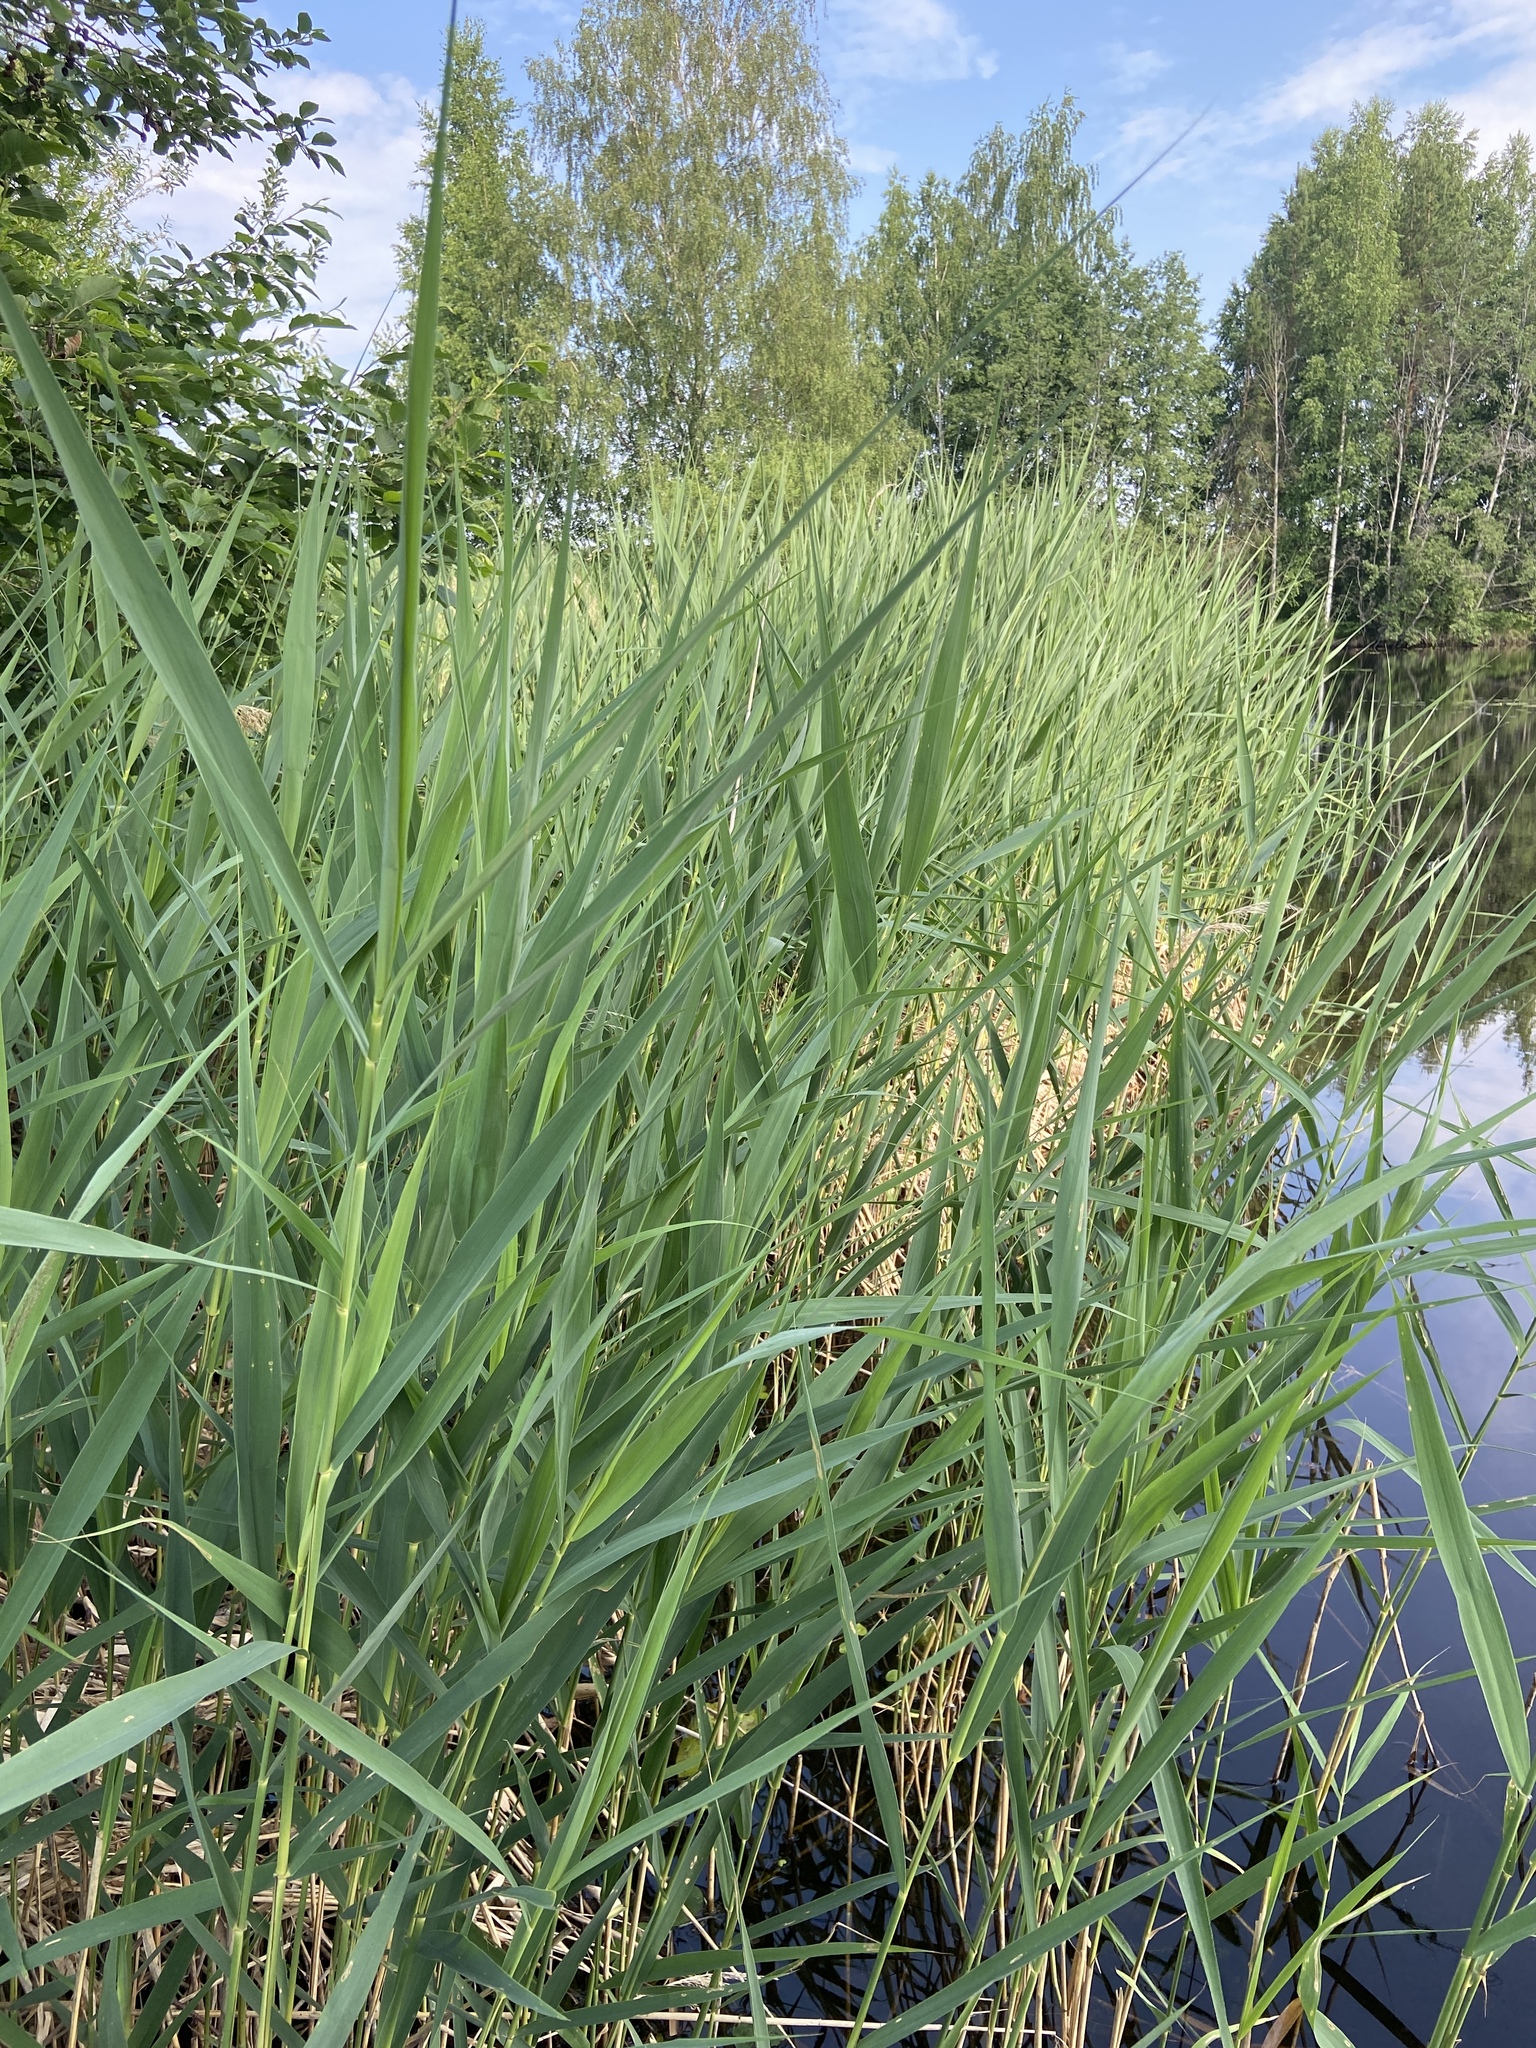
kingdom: Plantae
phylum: Tracheophyta
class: Liliopsida
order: Poales
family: Poaceae
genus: Phragmites
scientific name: Phragmites australis
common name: Common reed
